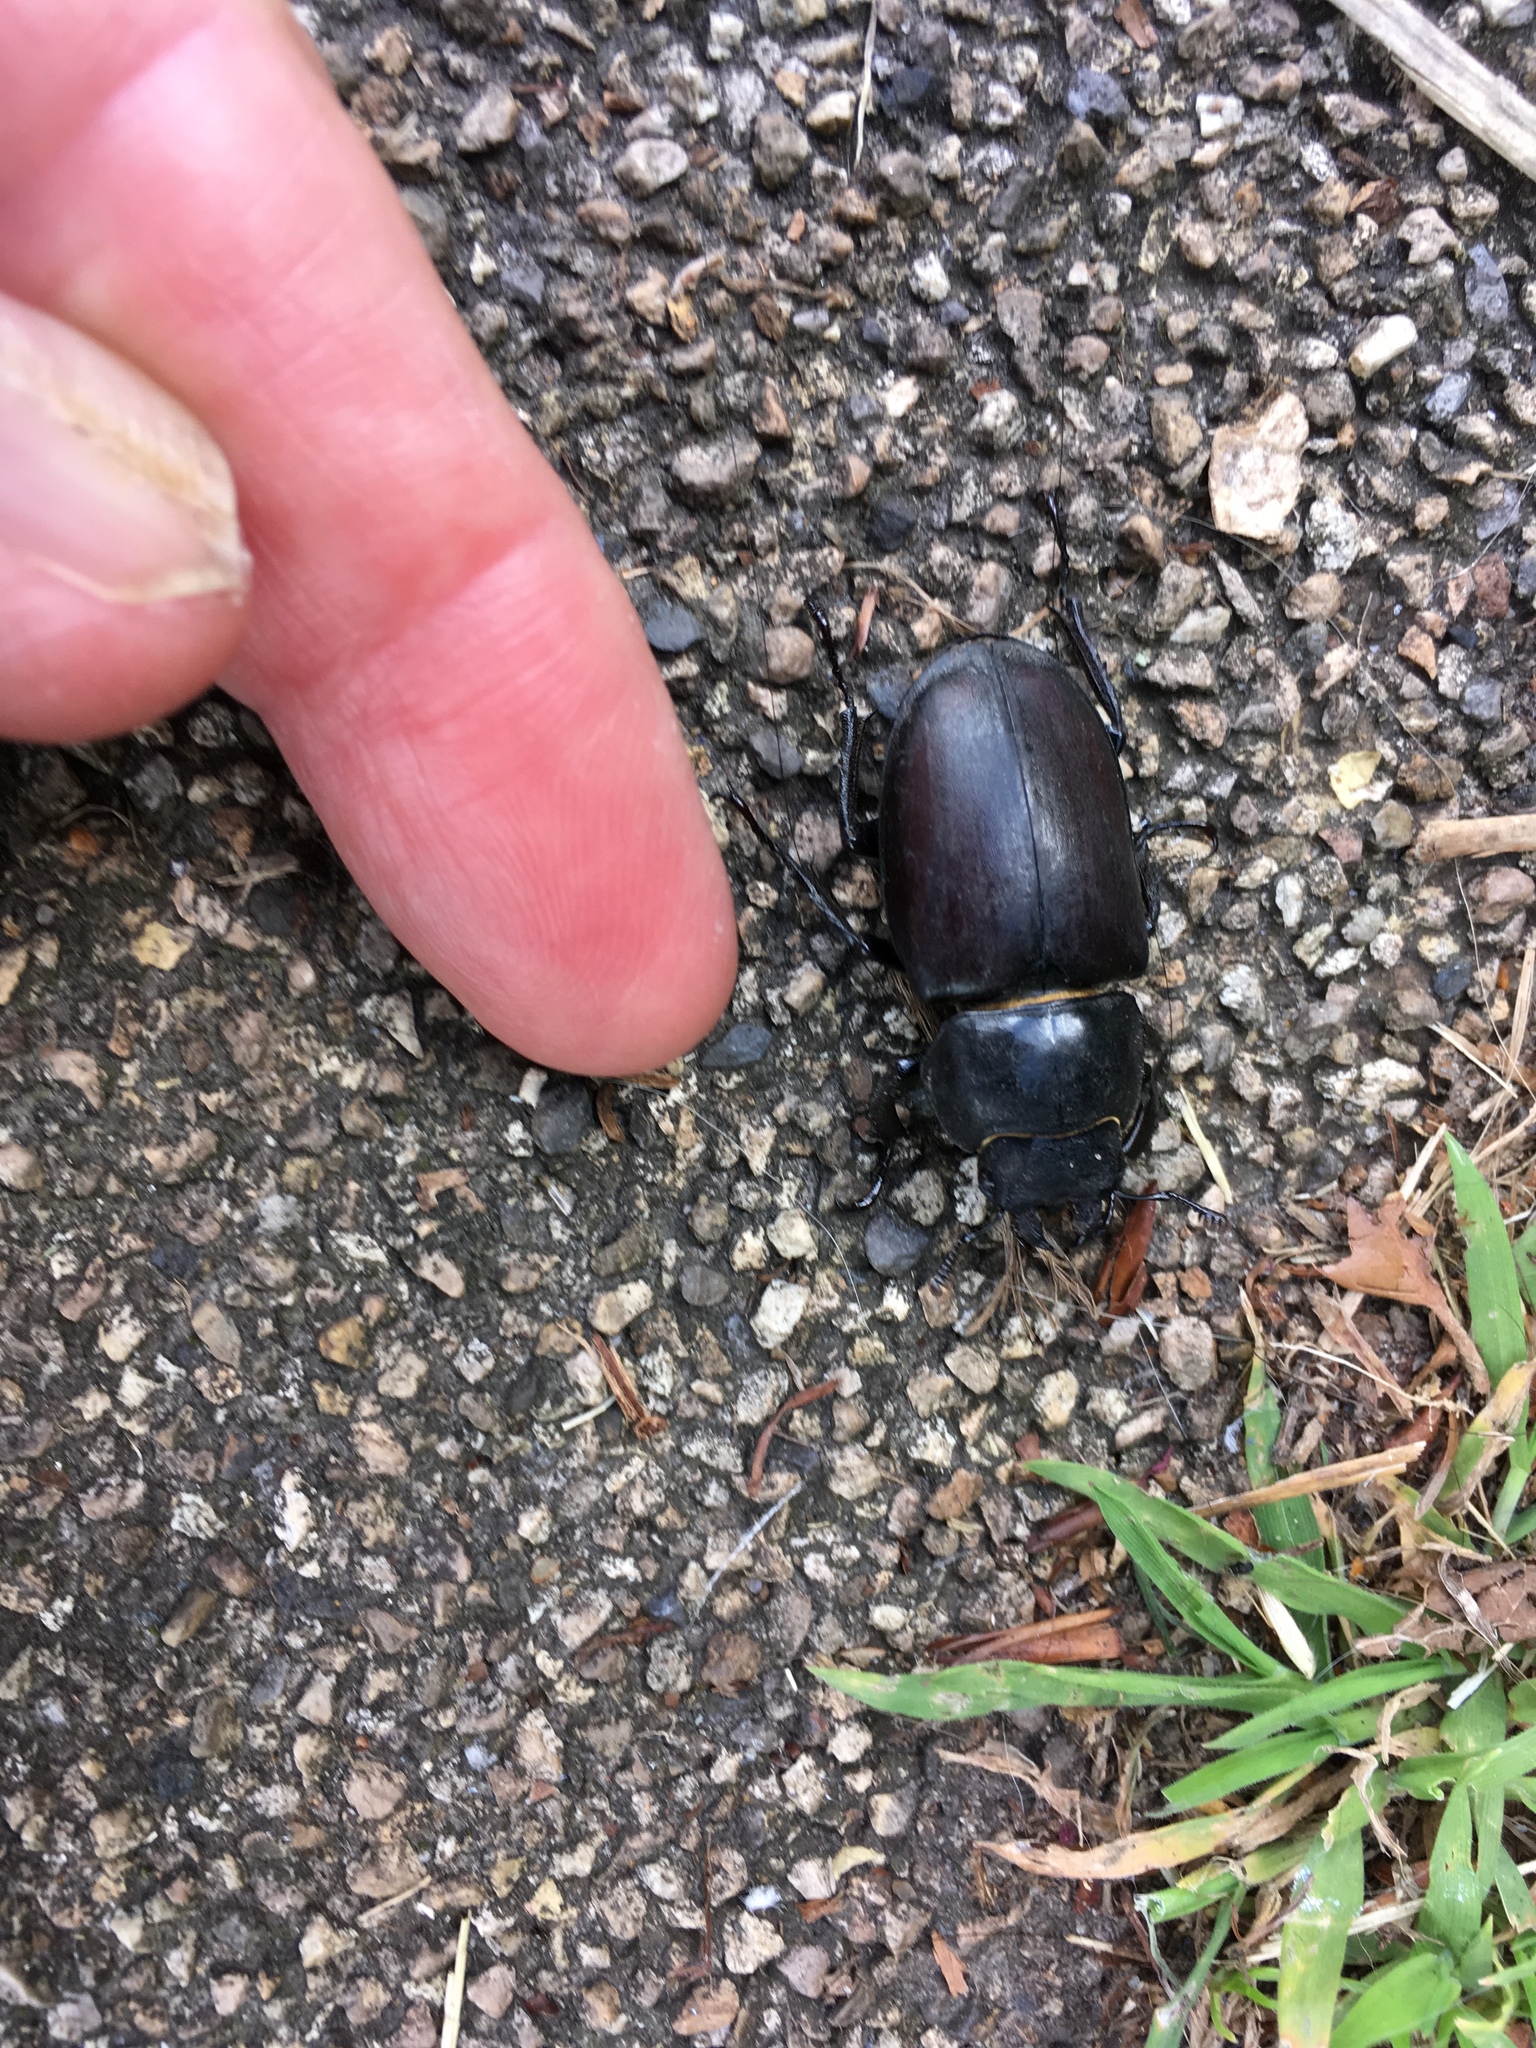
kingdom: Animalia
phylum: Arthropoda
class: Insecta
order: Coleoptera
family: Lucanidae
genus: Lucanus
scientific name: Lucanus cervus
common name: Stag beetle
